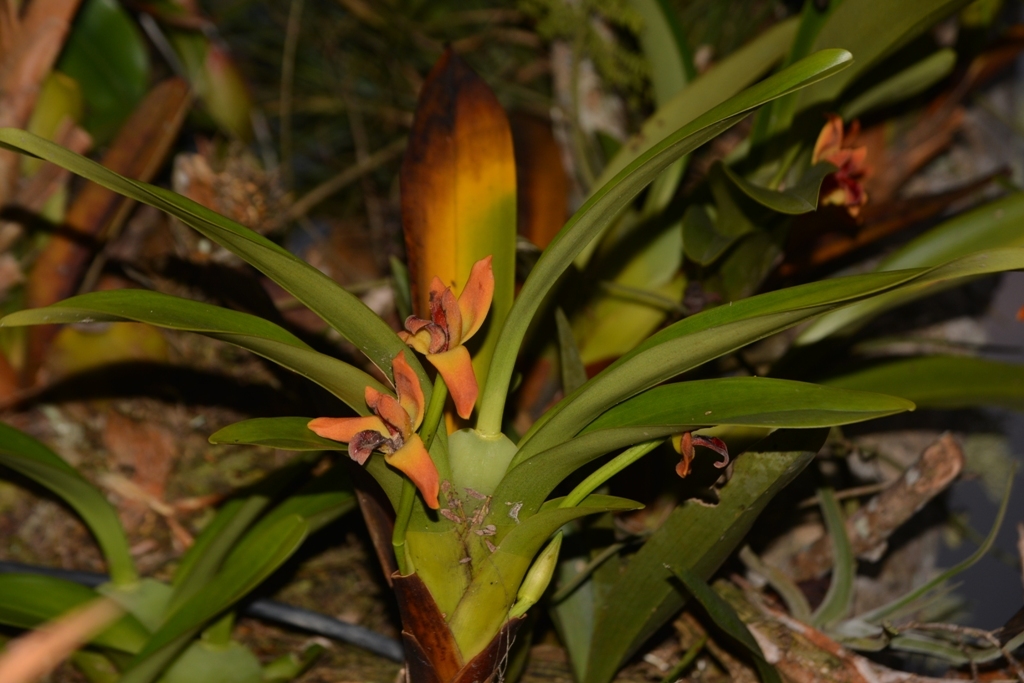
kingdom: Plantae
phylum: Tracheophyta
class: Liliopsida
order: Asparagales
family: Orchidaceae
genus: Maxillaria
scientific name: Maxillaria elatior
